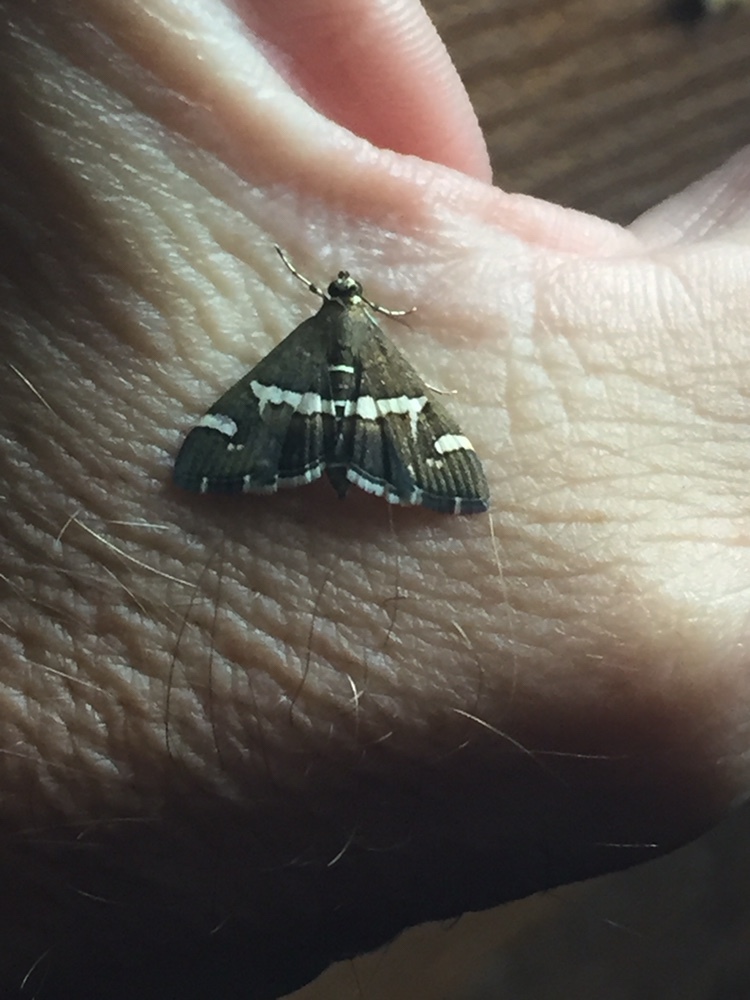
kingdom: Animalia
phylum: Arthropoda
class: Insecta
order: Lepidoptera
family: Crambidae
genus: Spoladea
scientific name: Spoladea recurvalis
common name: Beet webworm moth
